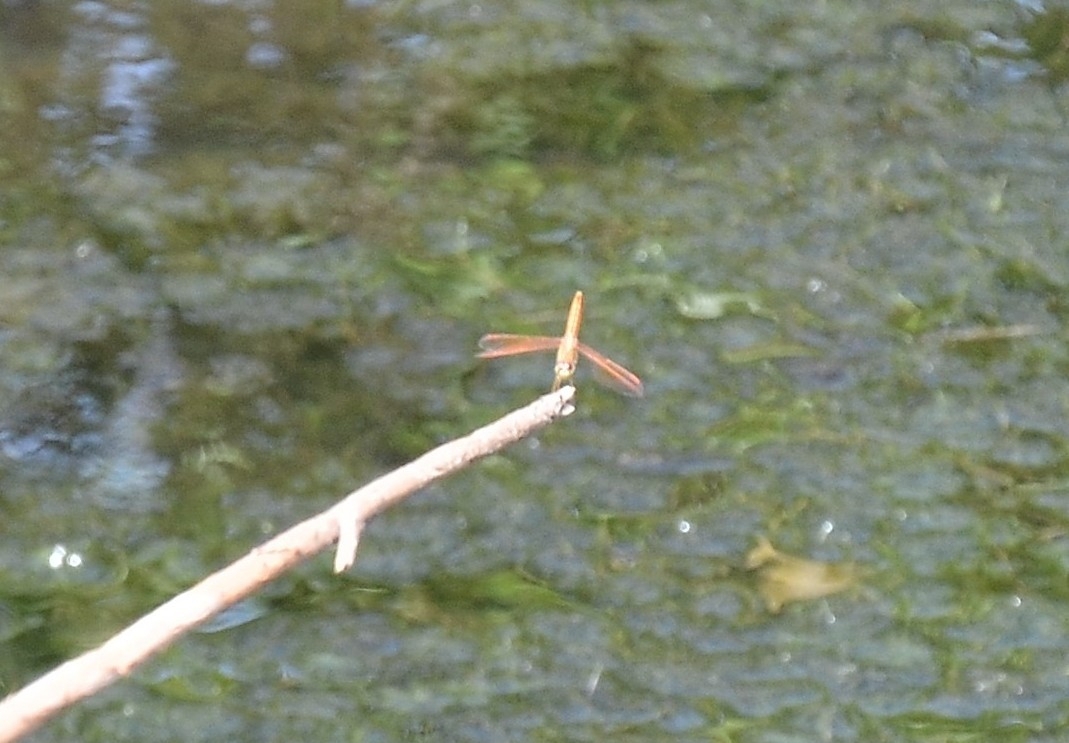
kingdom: Animalia
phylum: Arthropoda
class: Insecta
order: Odonata
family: Libellulidae
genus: Brachythemis
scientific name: Brachythemis contaminata
